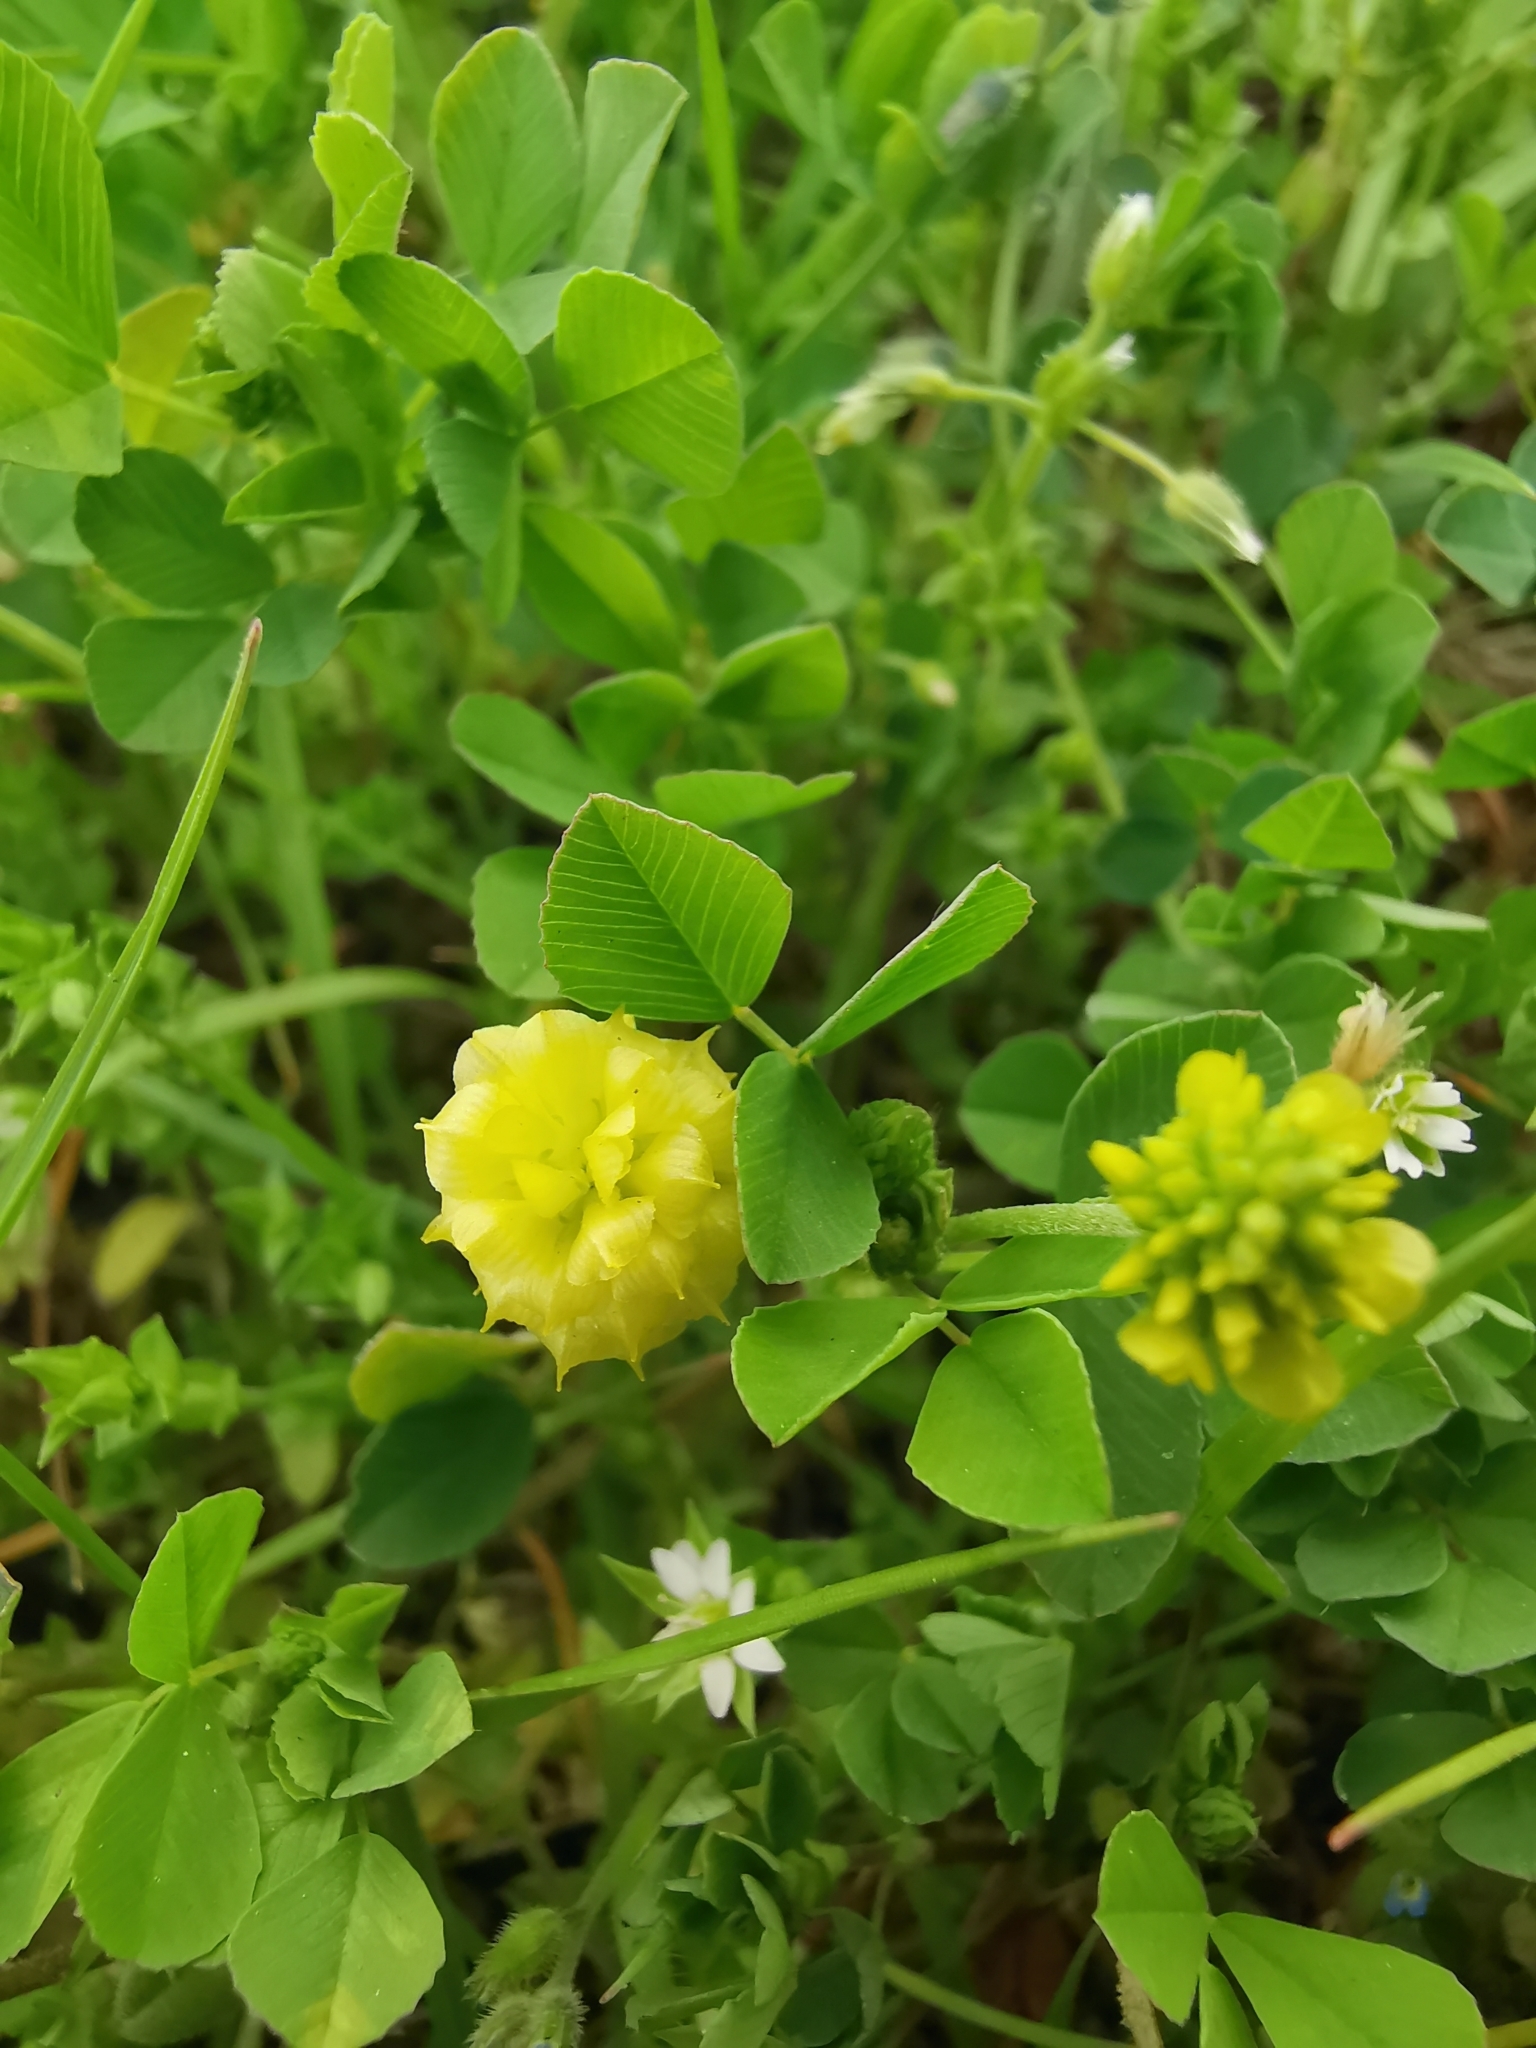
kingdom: Plantae
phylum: Tracheophyta
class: Magnoliopsida
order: Fabales
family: Fabaceae
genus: Trifolium
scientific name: Trifolium campestre
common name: Field clover
